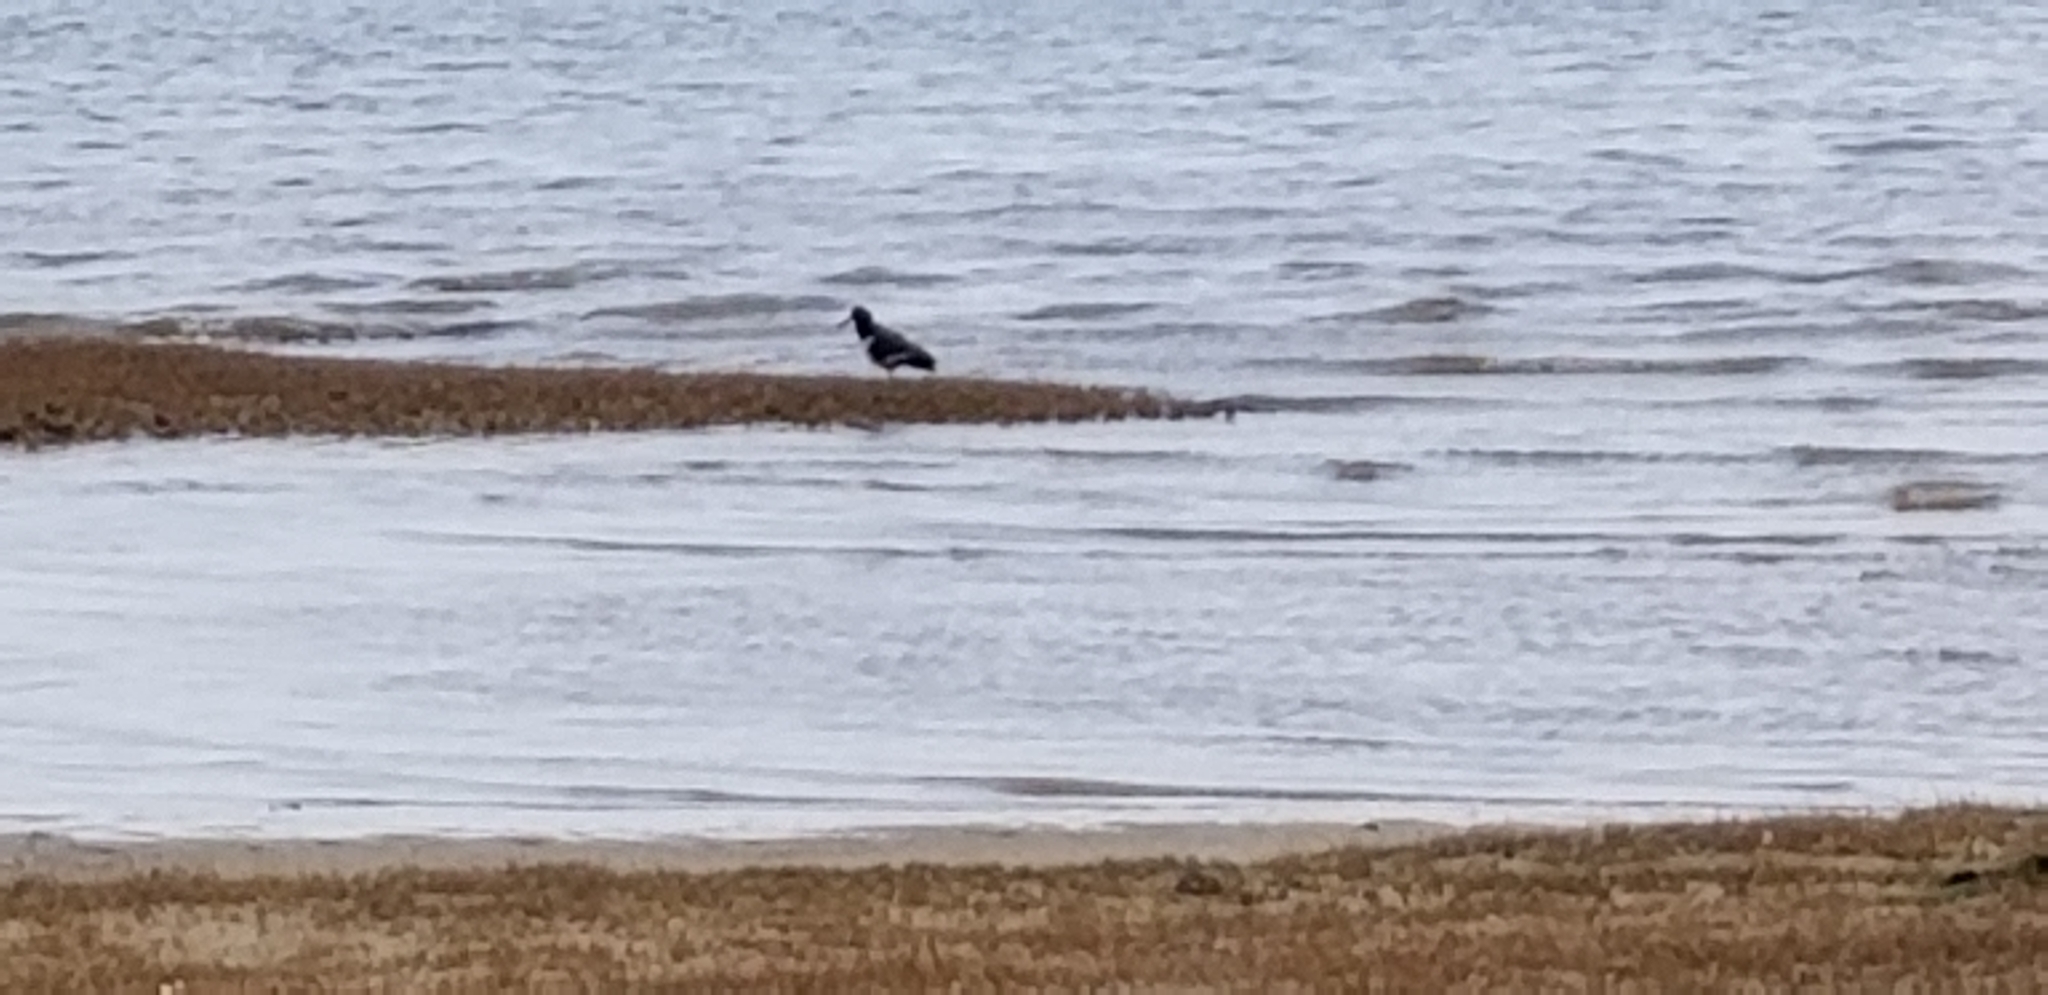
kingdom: Animalia
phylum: Chordata
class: Aves
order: Charadriiformes
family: Haematopodidae
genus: Haematopus
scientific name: Haematopus palliatus
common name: American oystercatcher
